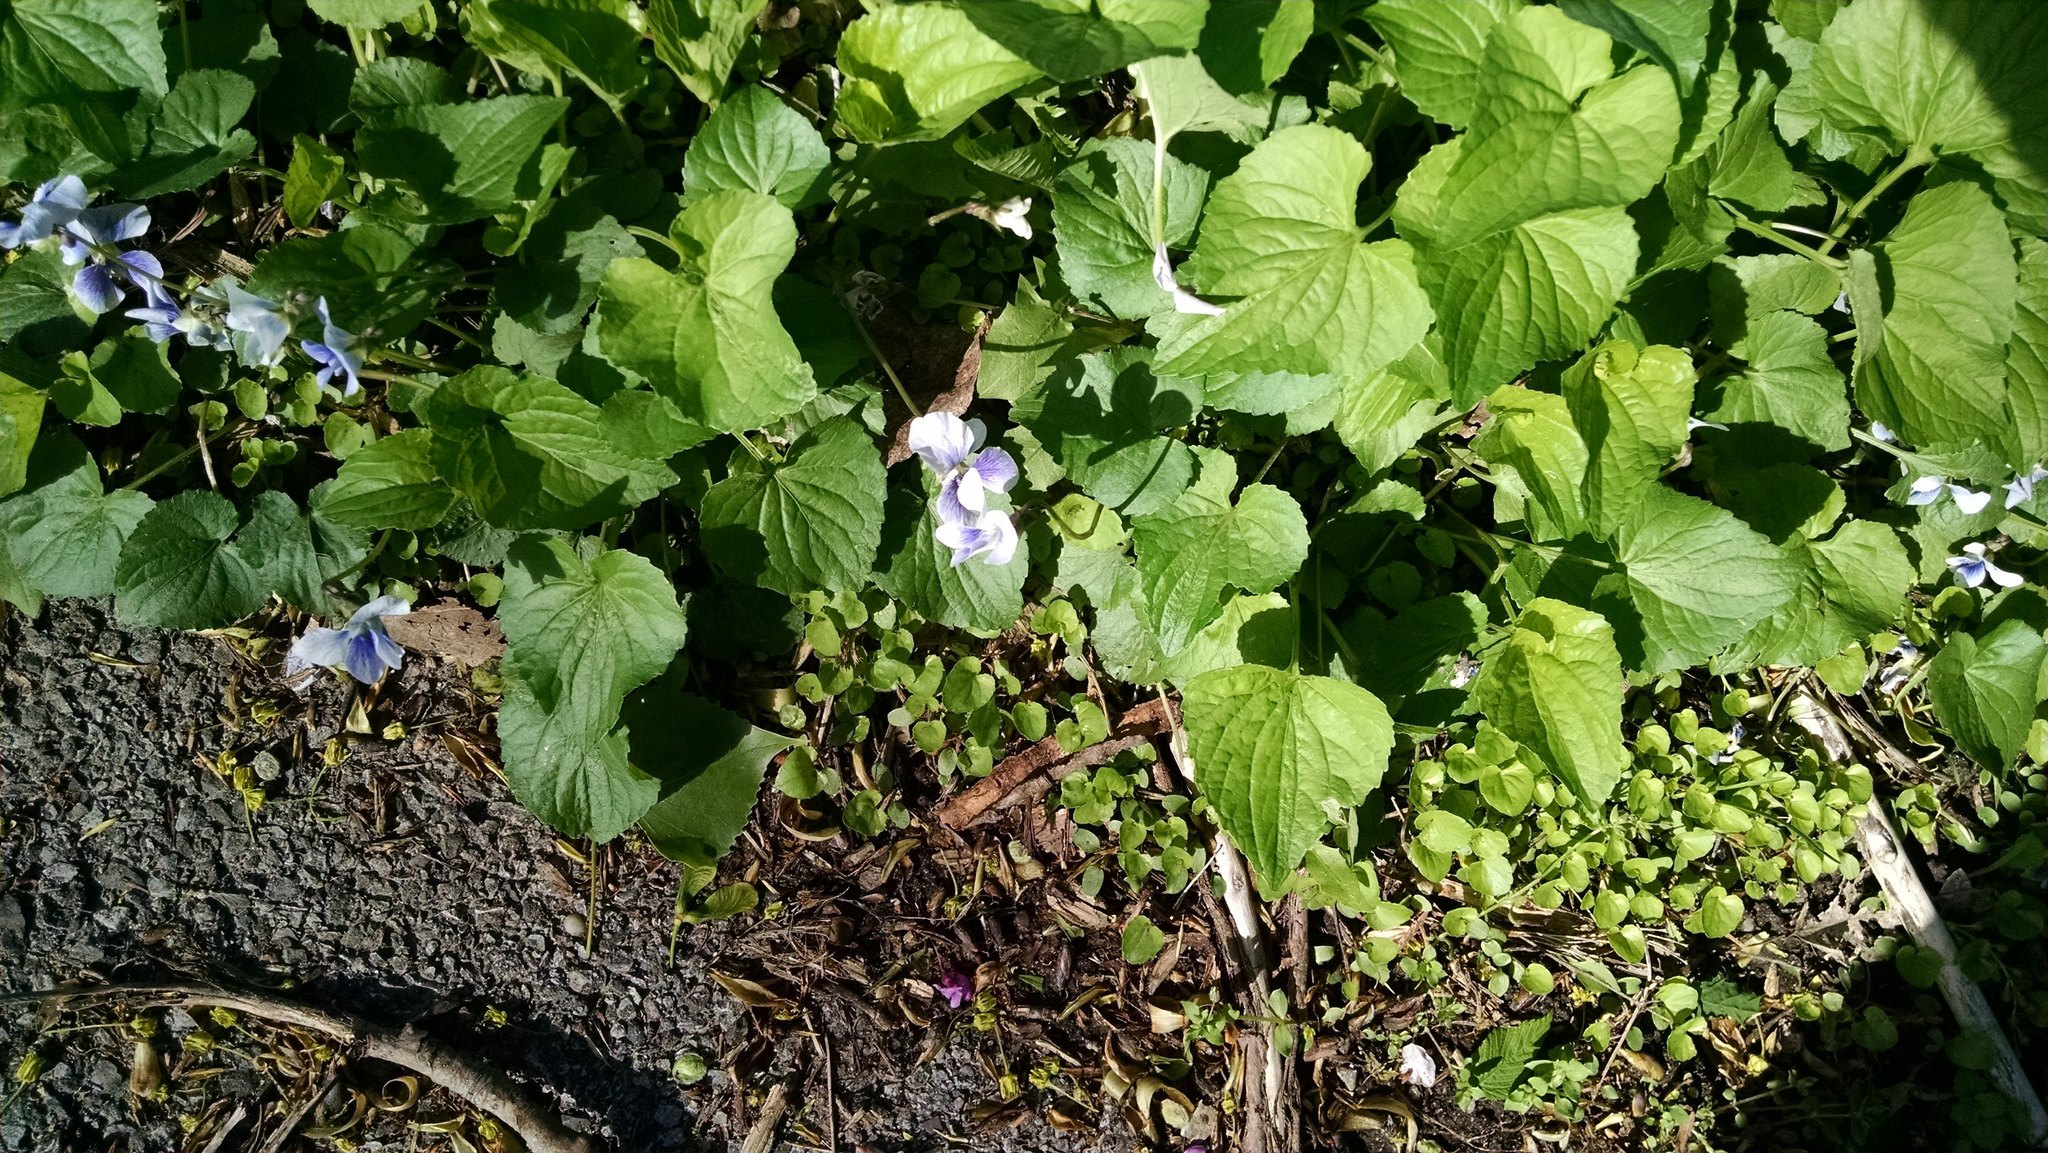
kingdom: Plantae
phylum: Tracheophyta
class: Magnoliopsida
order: Malpighiales
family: Violaceae
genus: Viola
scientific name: Viola sororia
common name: Dooryard violet
